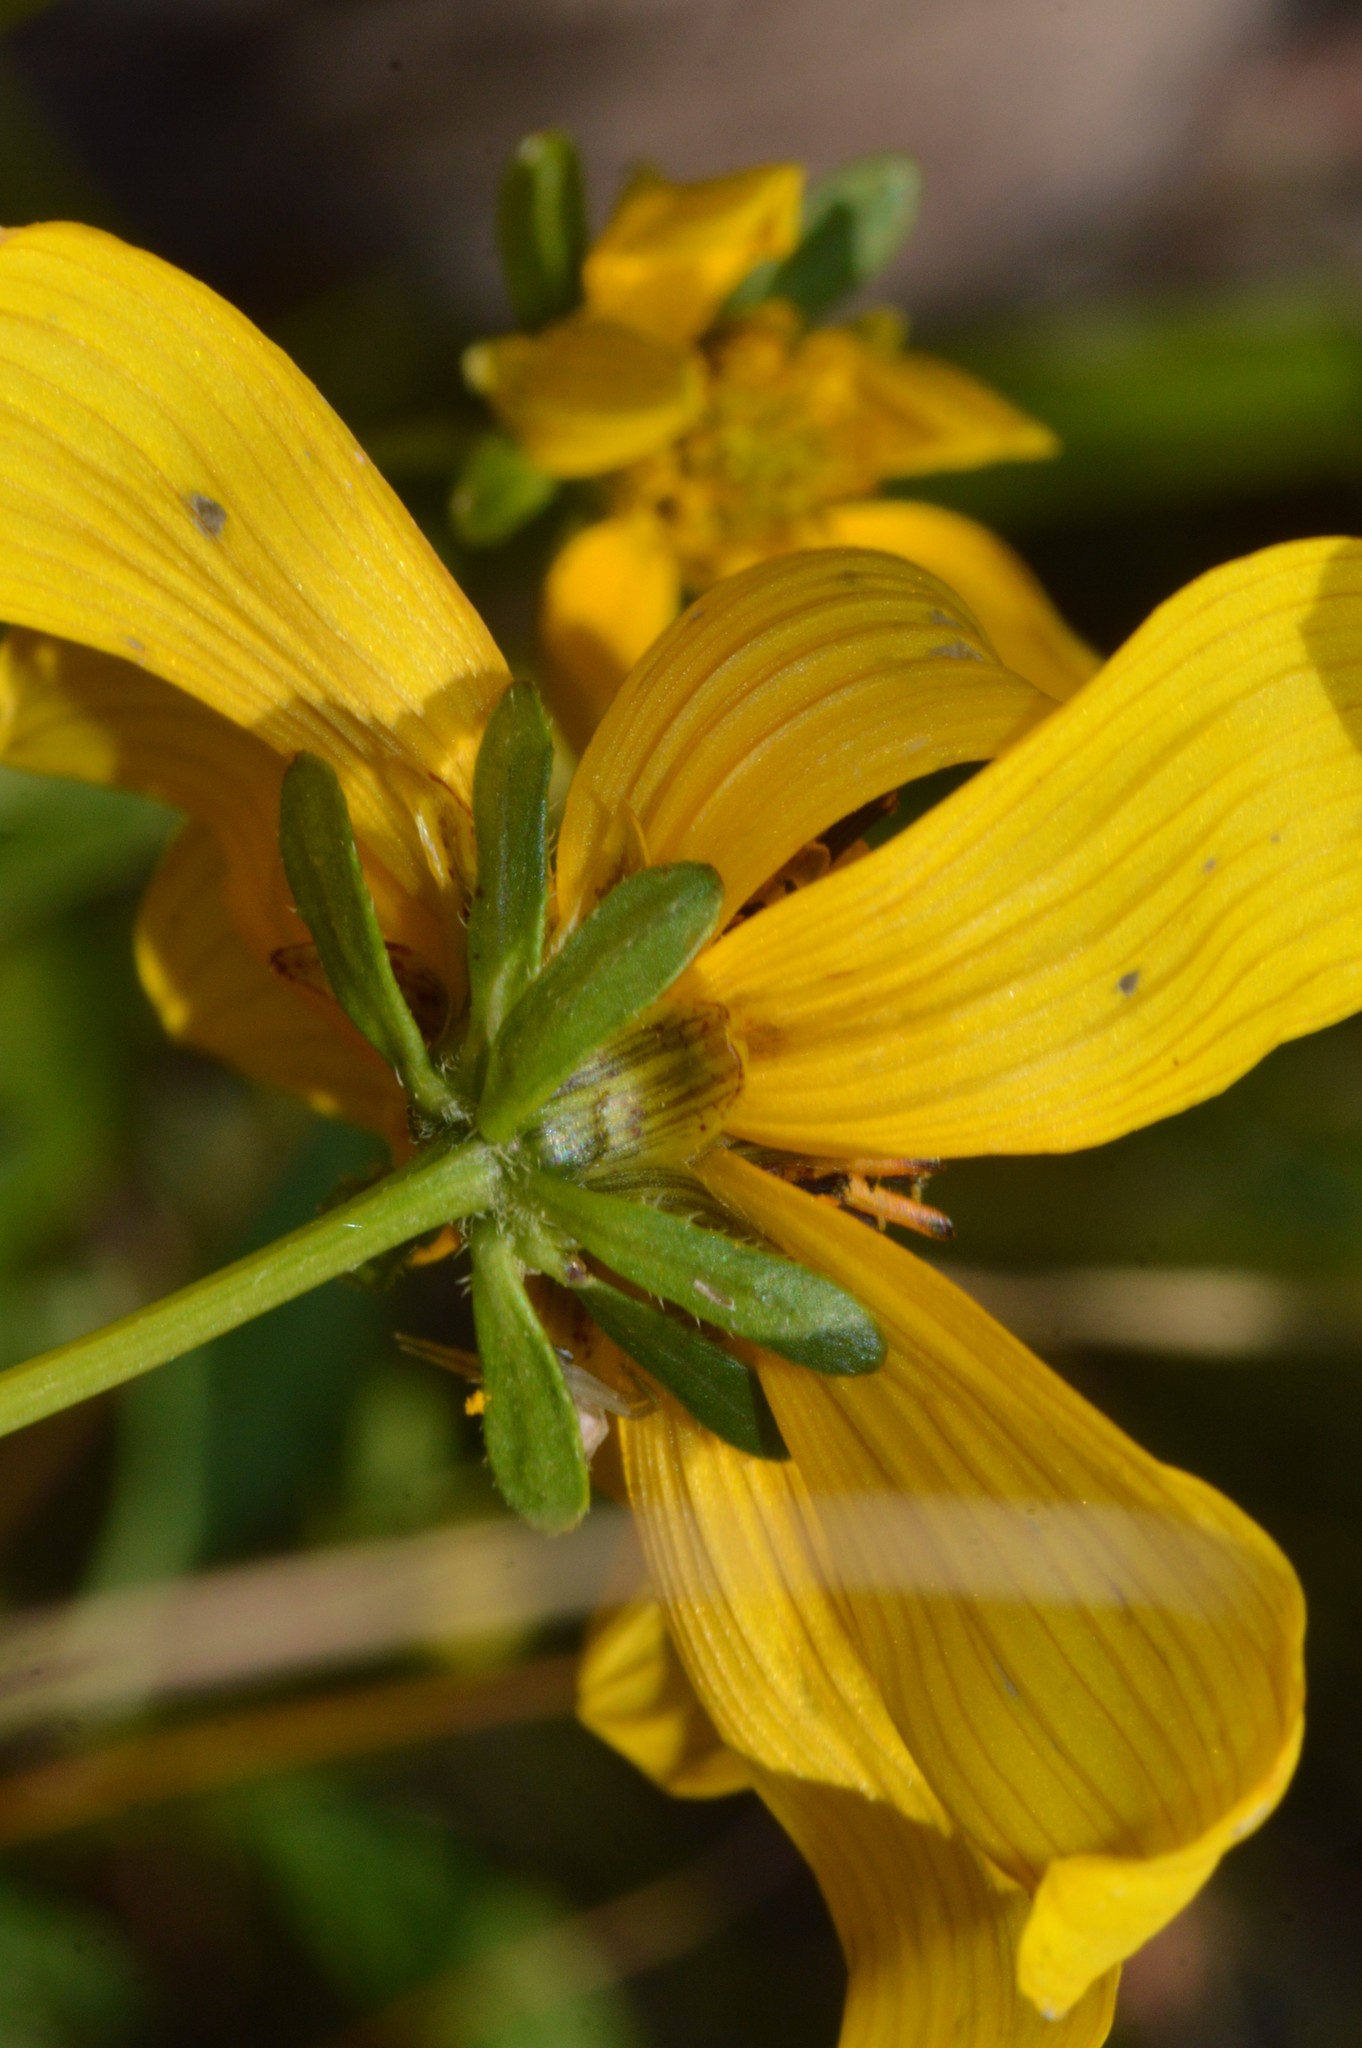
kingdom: Plantae
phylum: Tracheophyta
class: Magnoliopsida
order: Asterales
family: Asteraceae
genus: Bidens
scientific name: Bidens mitis
